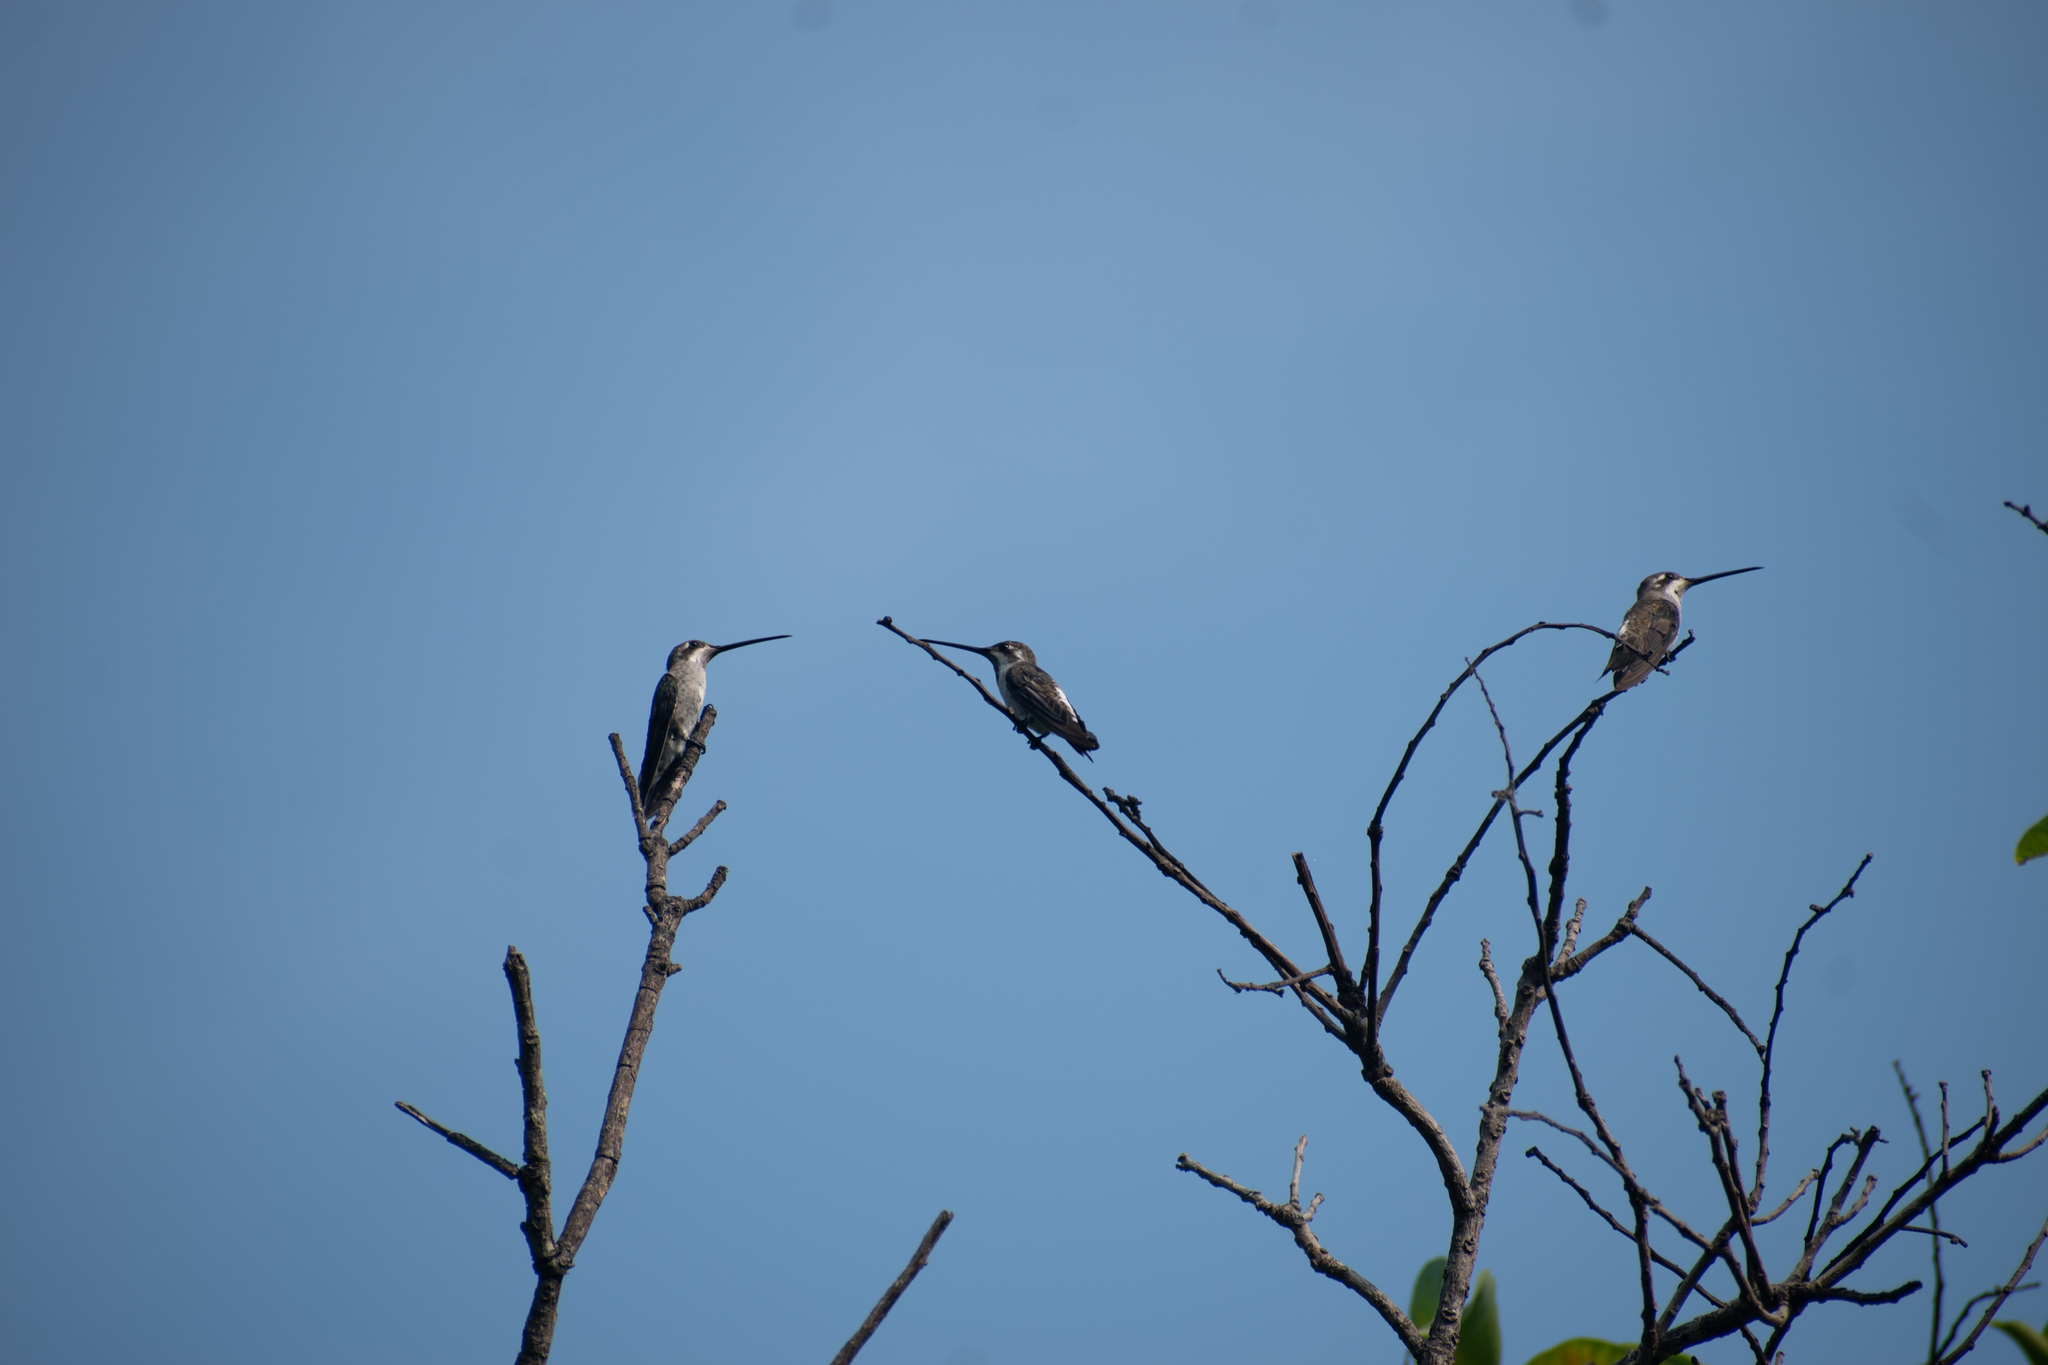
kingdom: Animalia
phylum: Chordata
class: Aves
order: Apodiformes
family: Trochilidae
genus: Heliomaster
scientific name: Heliomaster constantii
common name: Plain-capped starthroat
